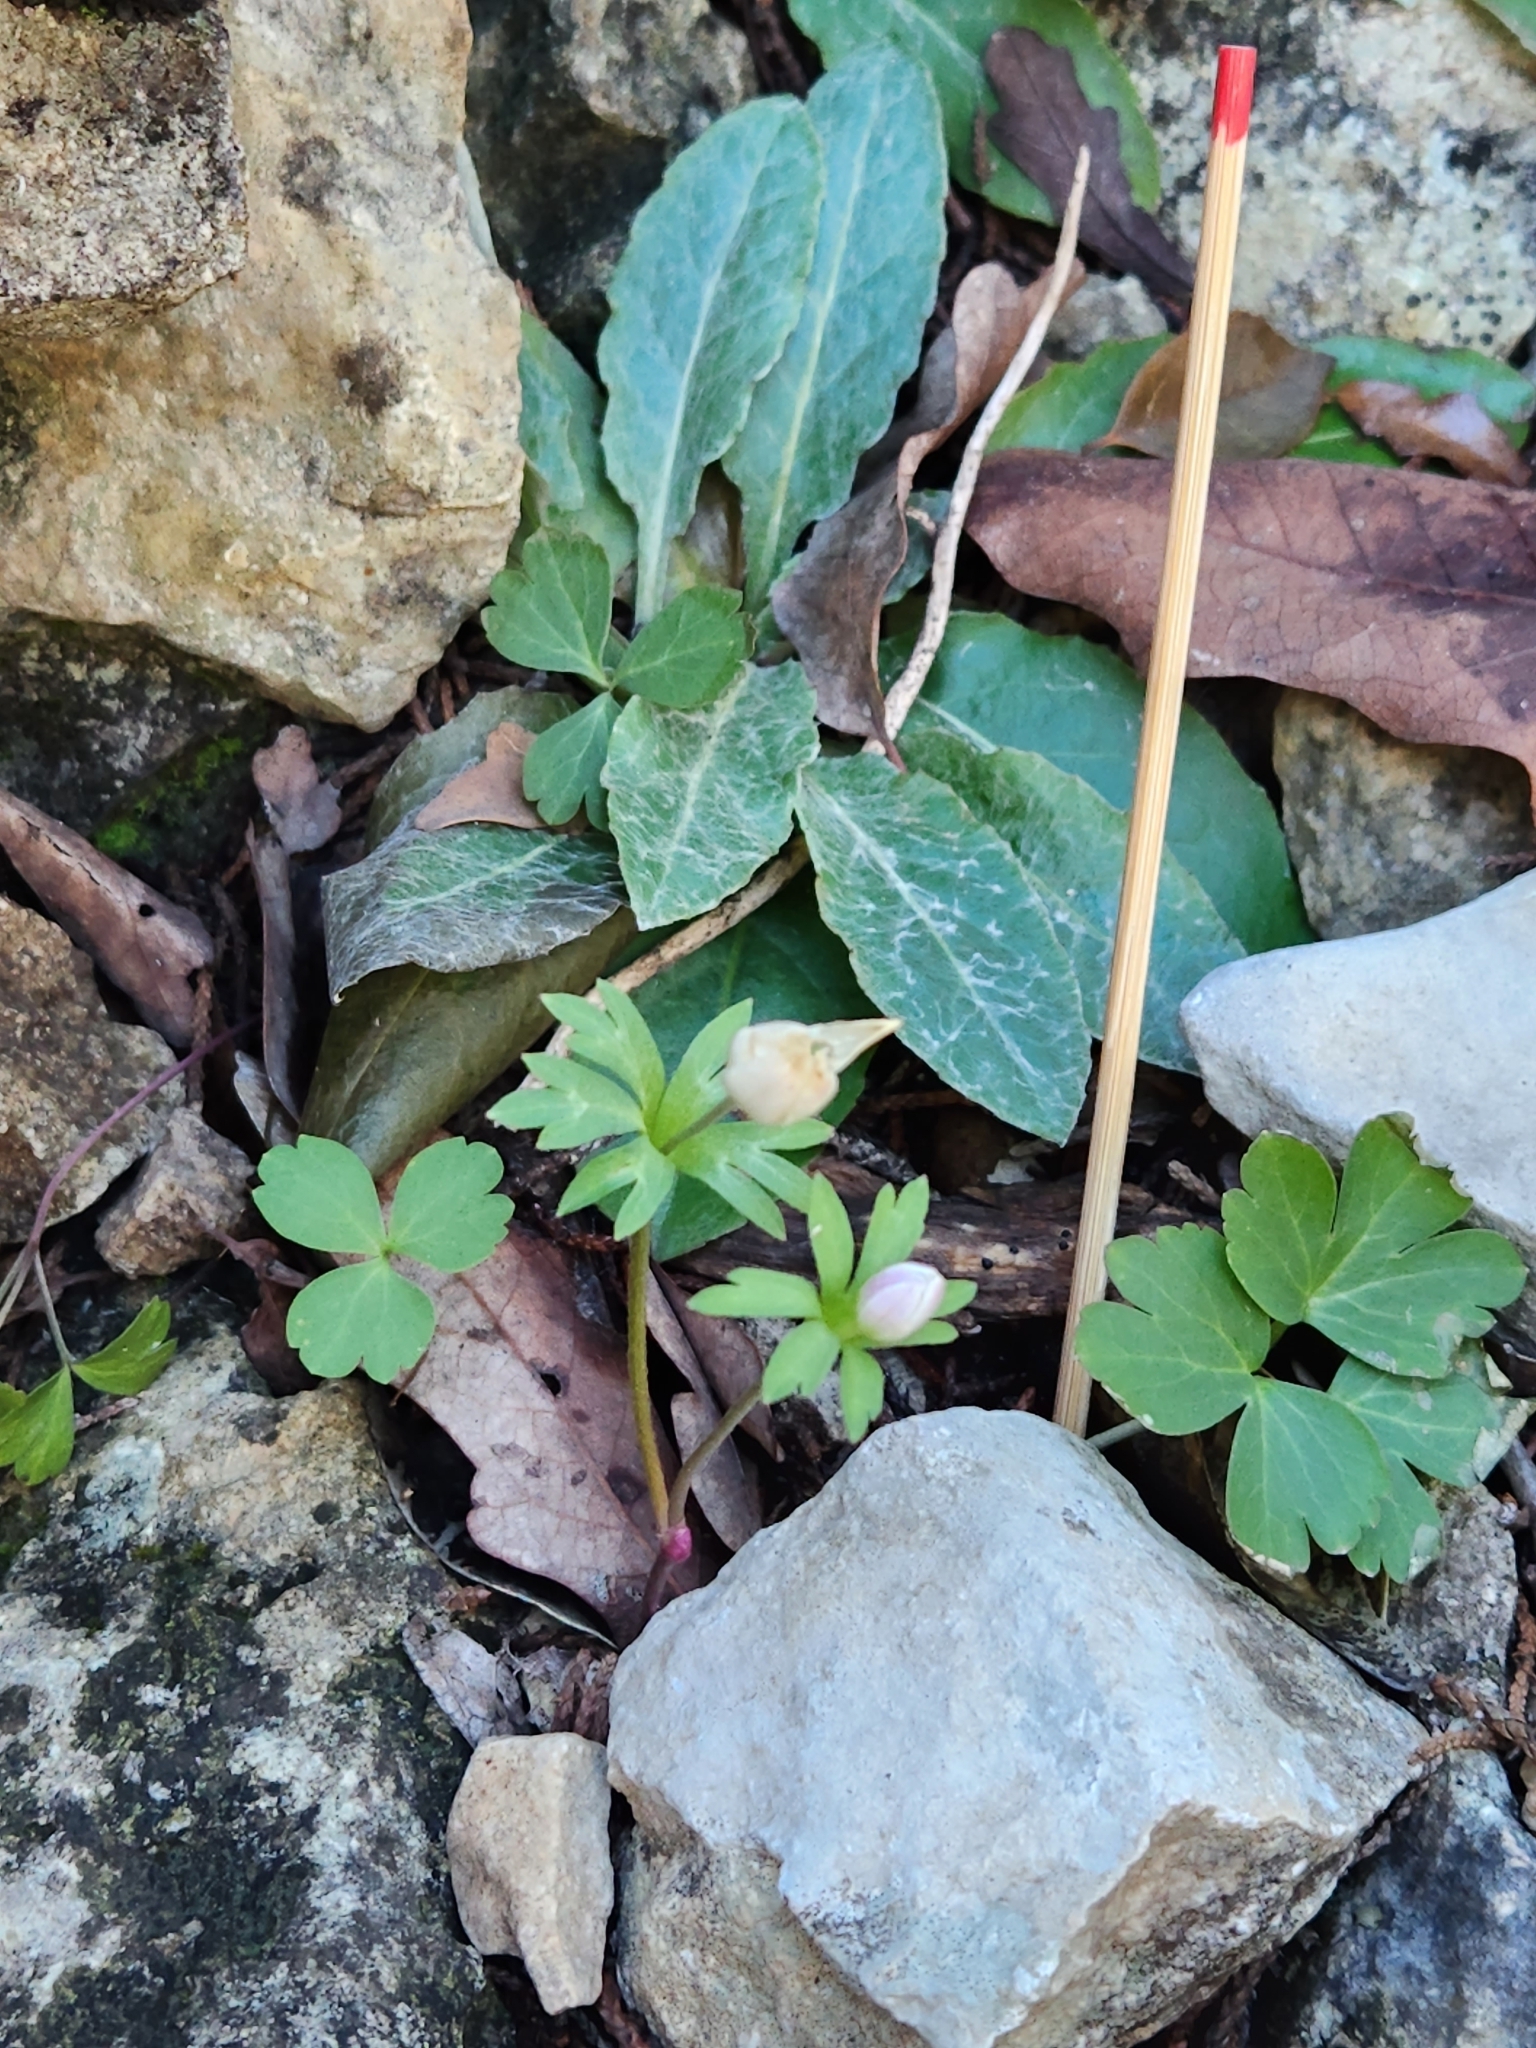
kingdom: Plantae
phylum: Tracheophyta
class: Magnoliopsida
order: Ranunculales
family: Ranunculaceae
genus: Anemone
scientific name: Anemone edwardsiana
